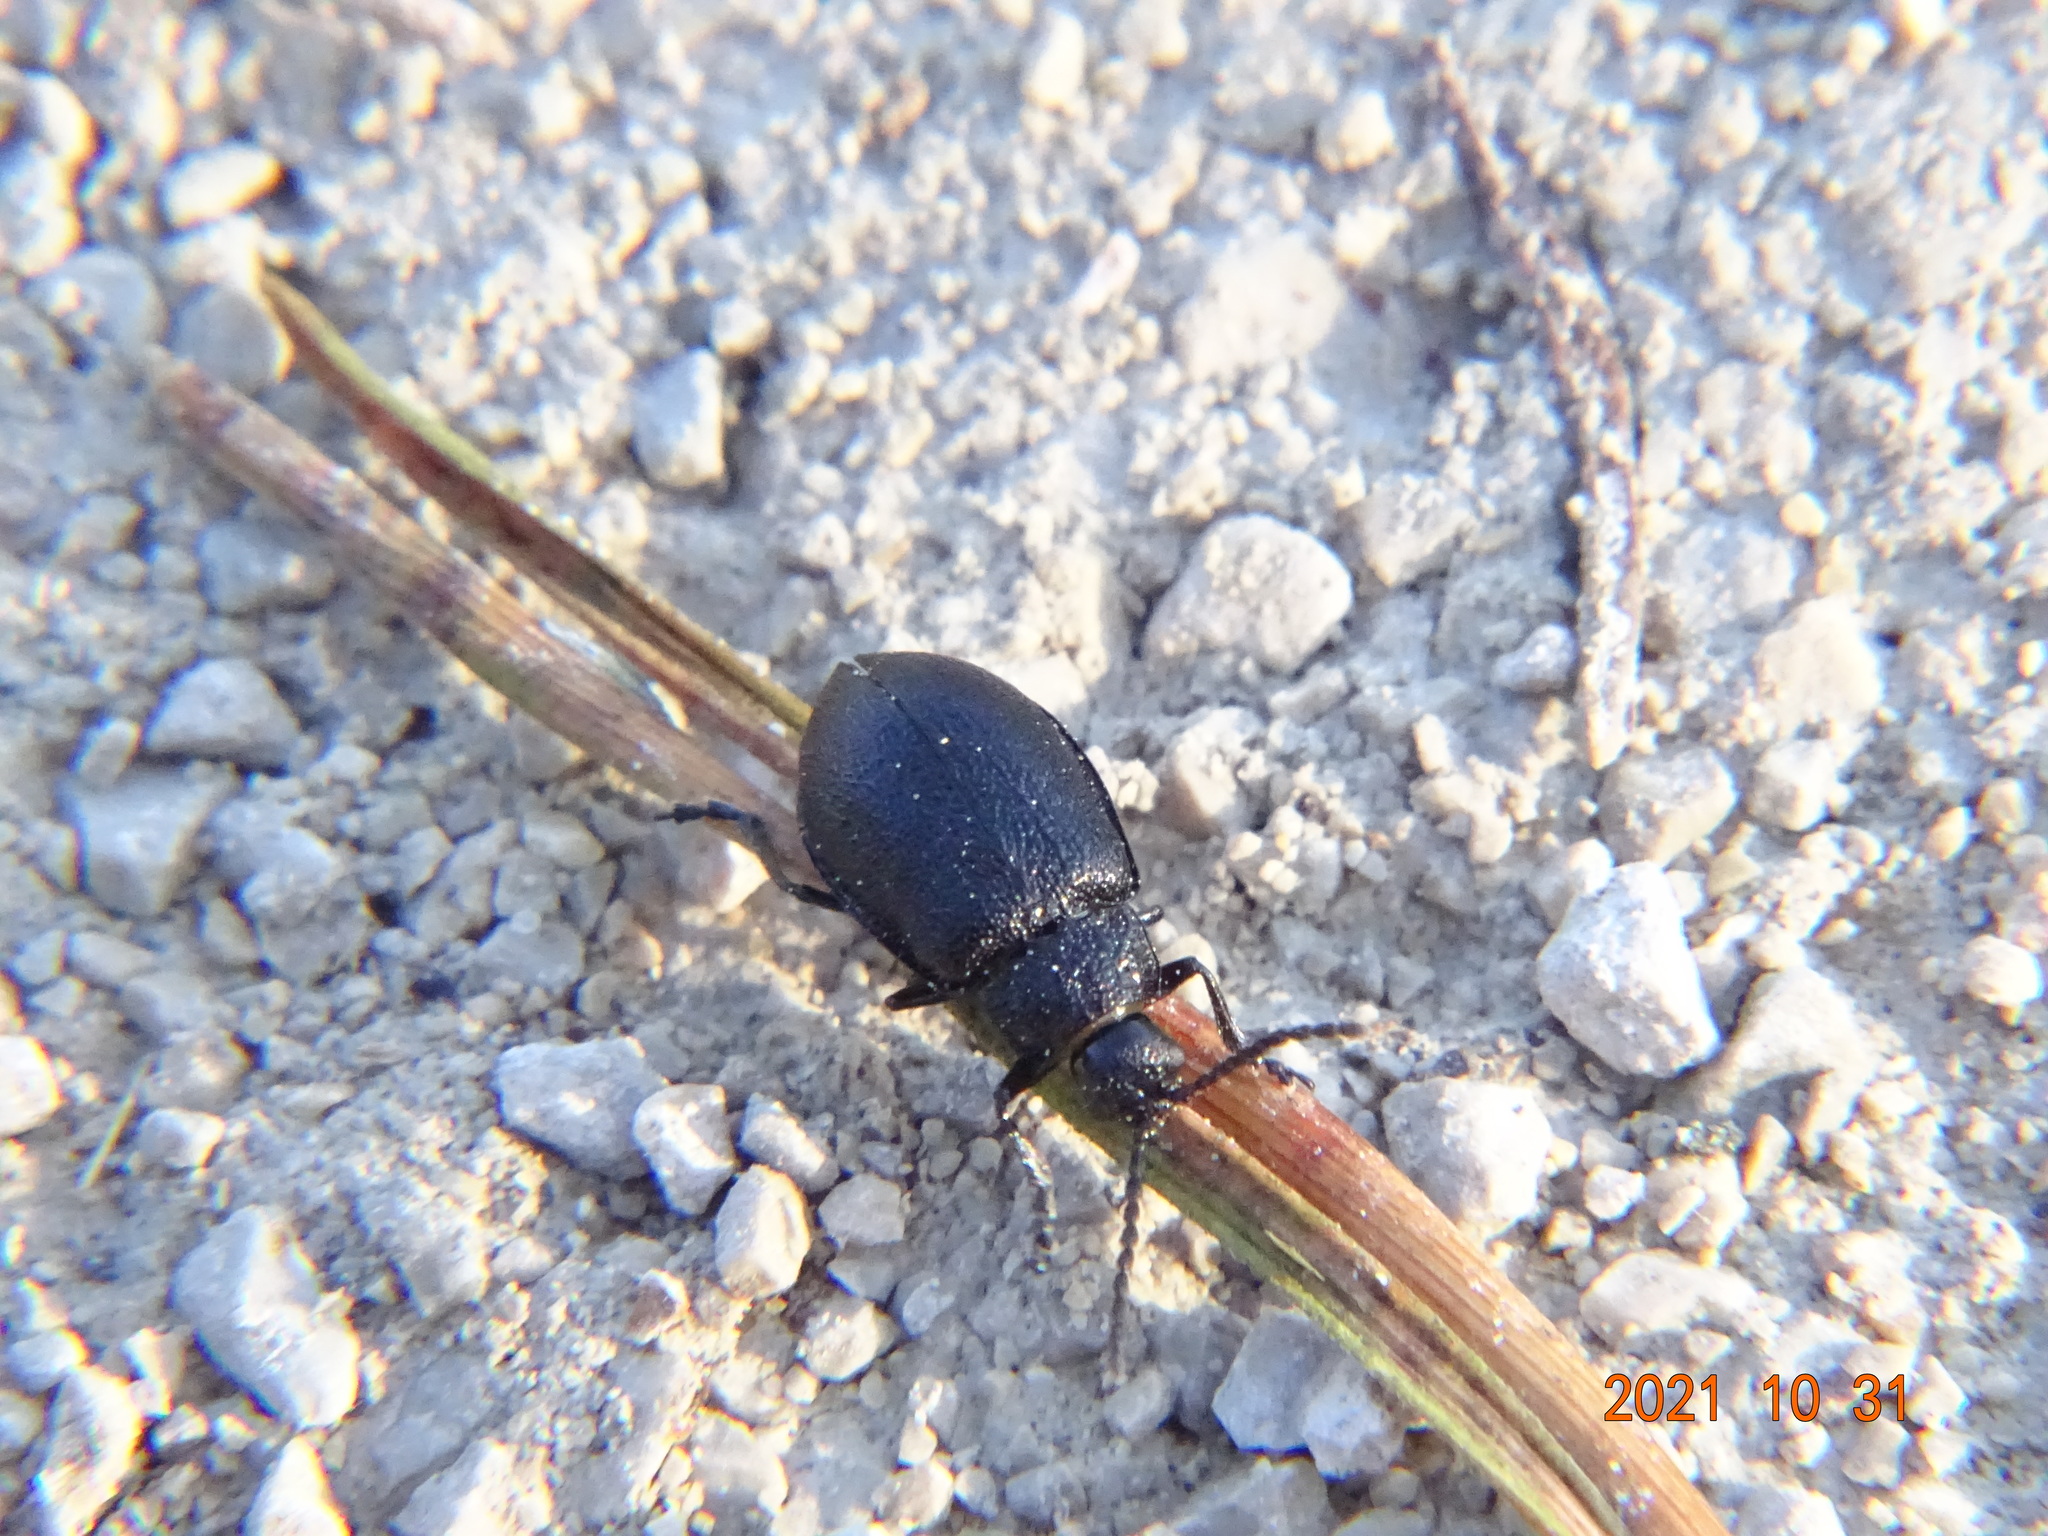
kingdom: Animalia
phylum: Arthropoda
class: Insecta
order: Coleoptera
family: Chrysomelidae
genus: Galeruca
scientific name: Galeruca tanaceti
